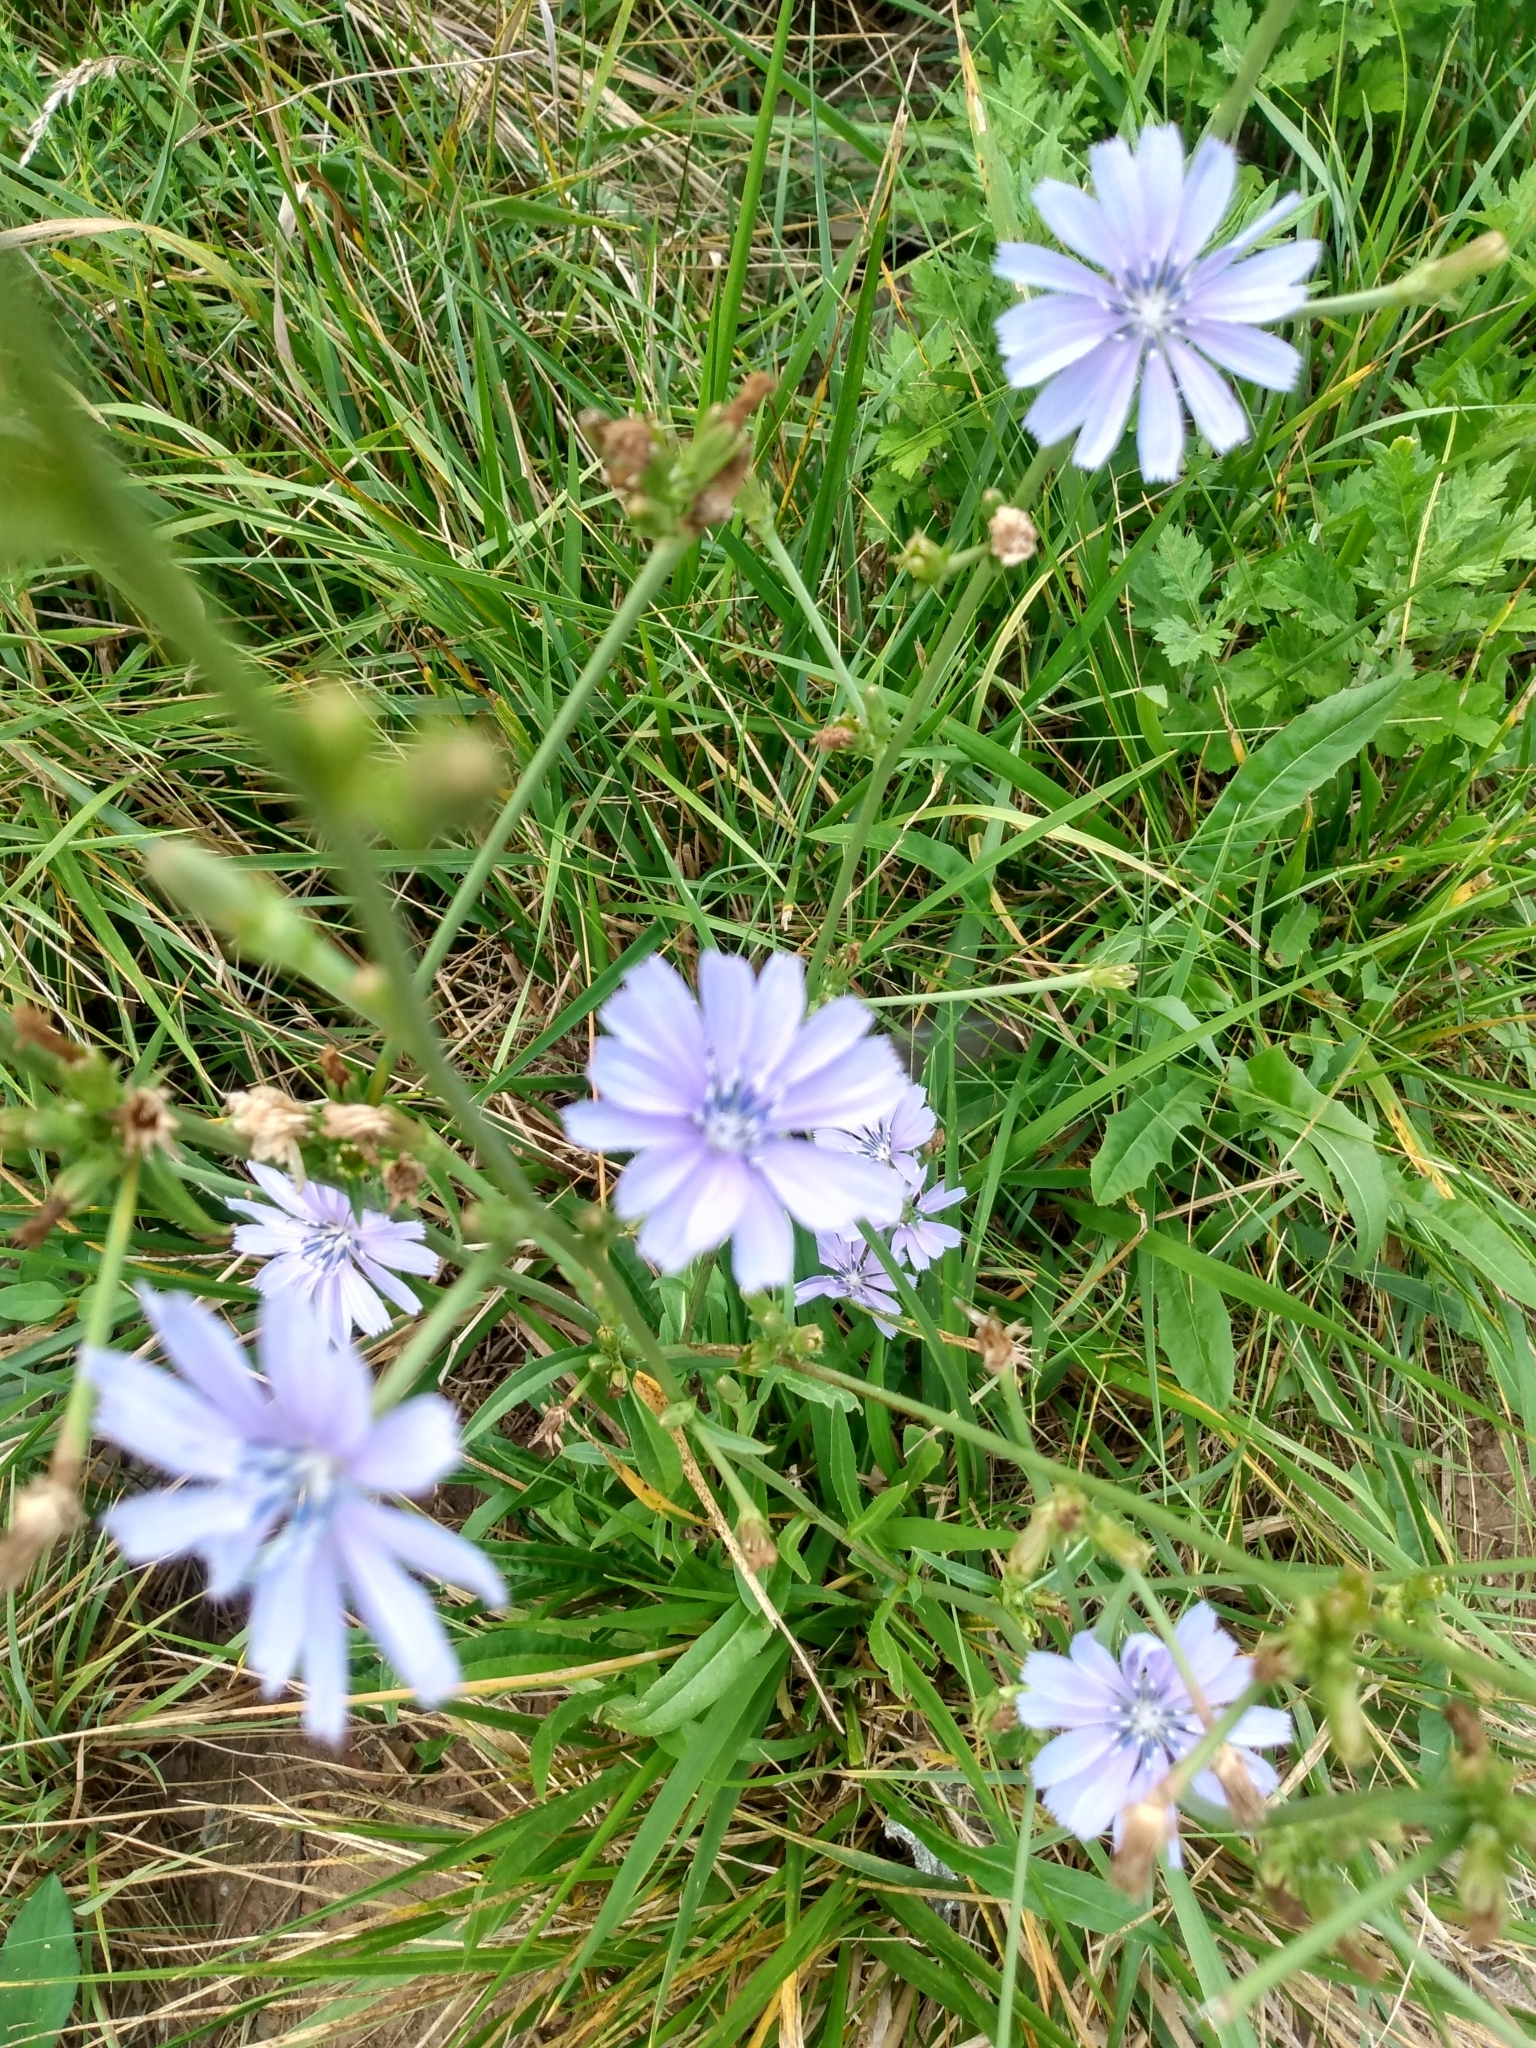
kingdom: Plantae
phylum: Tracheophyta
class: Magnoliopsida
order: Asterales
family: Asteraceae
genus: Cichorium
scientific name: Cichorium intybus
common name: Chicory
